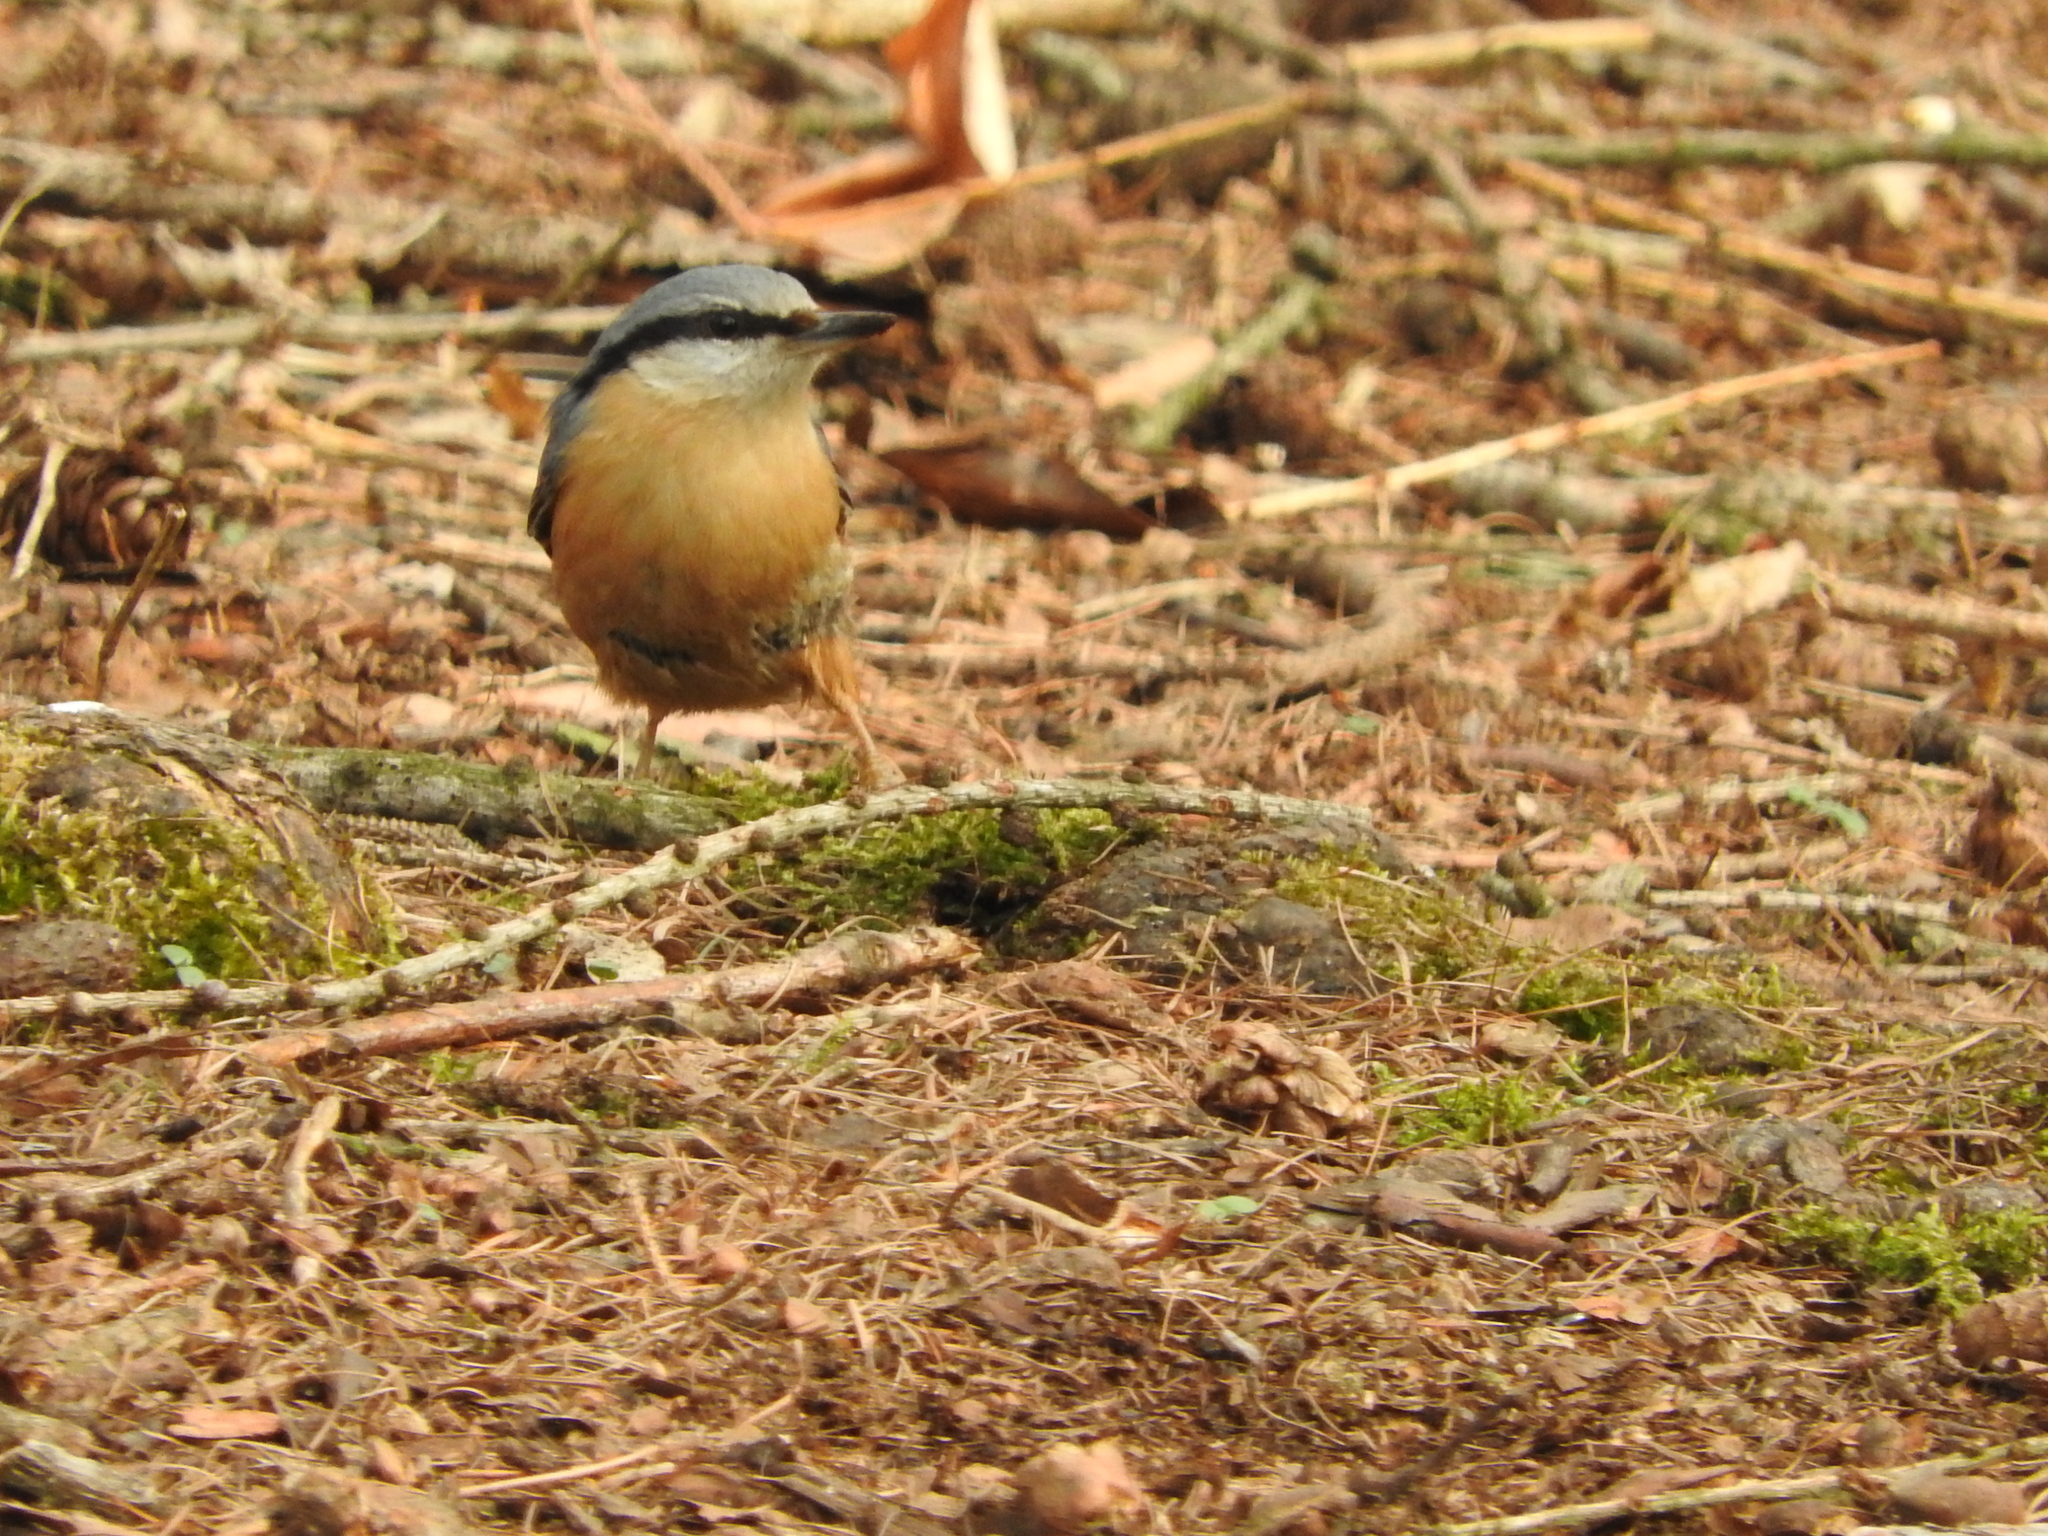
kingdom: Animalia
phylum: Chordata
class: Aves
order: Passeriformes
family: Sittidae
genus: Sitta
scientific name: Sitta europaea
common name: Eurasian nuthatch
